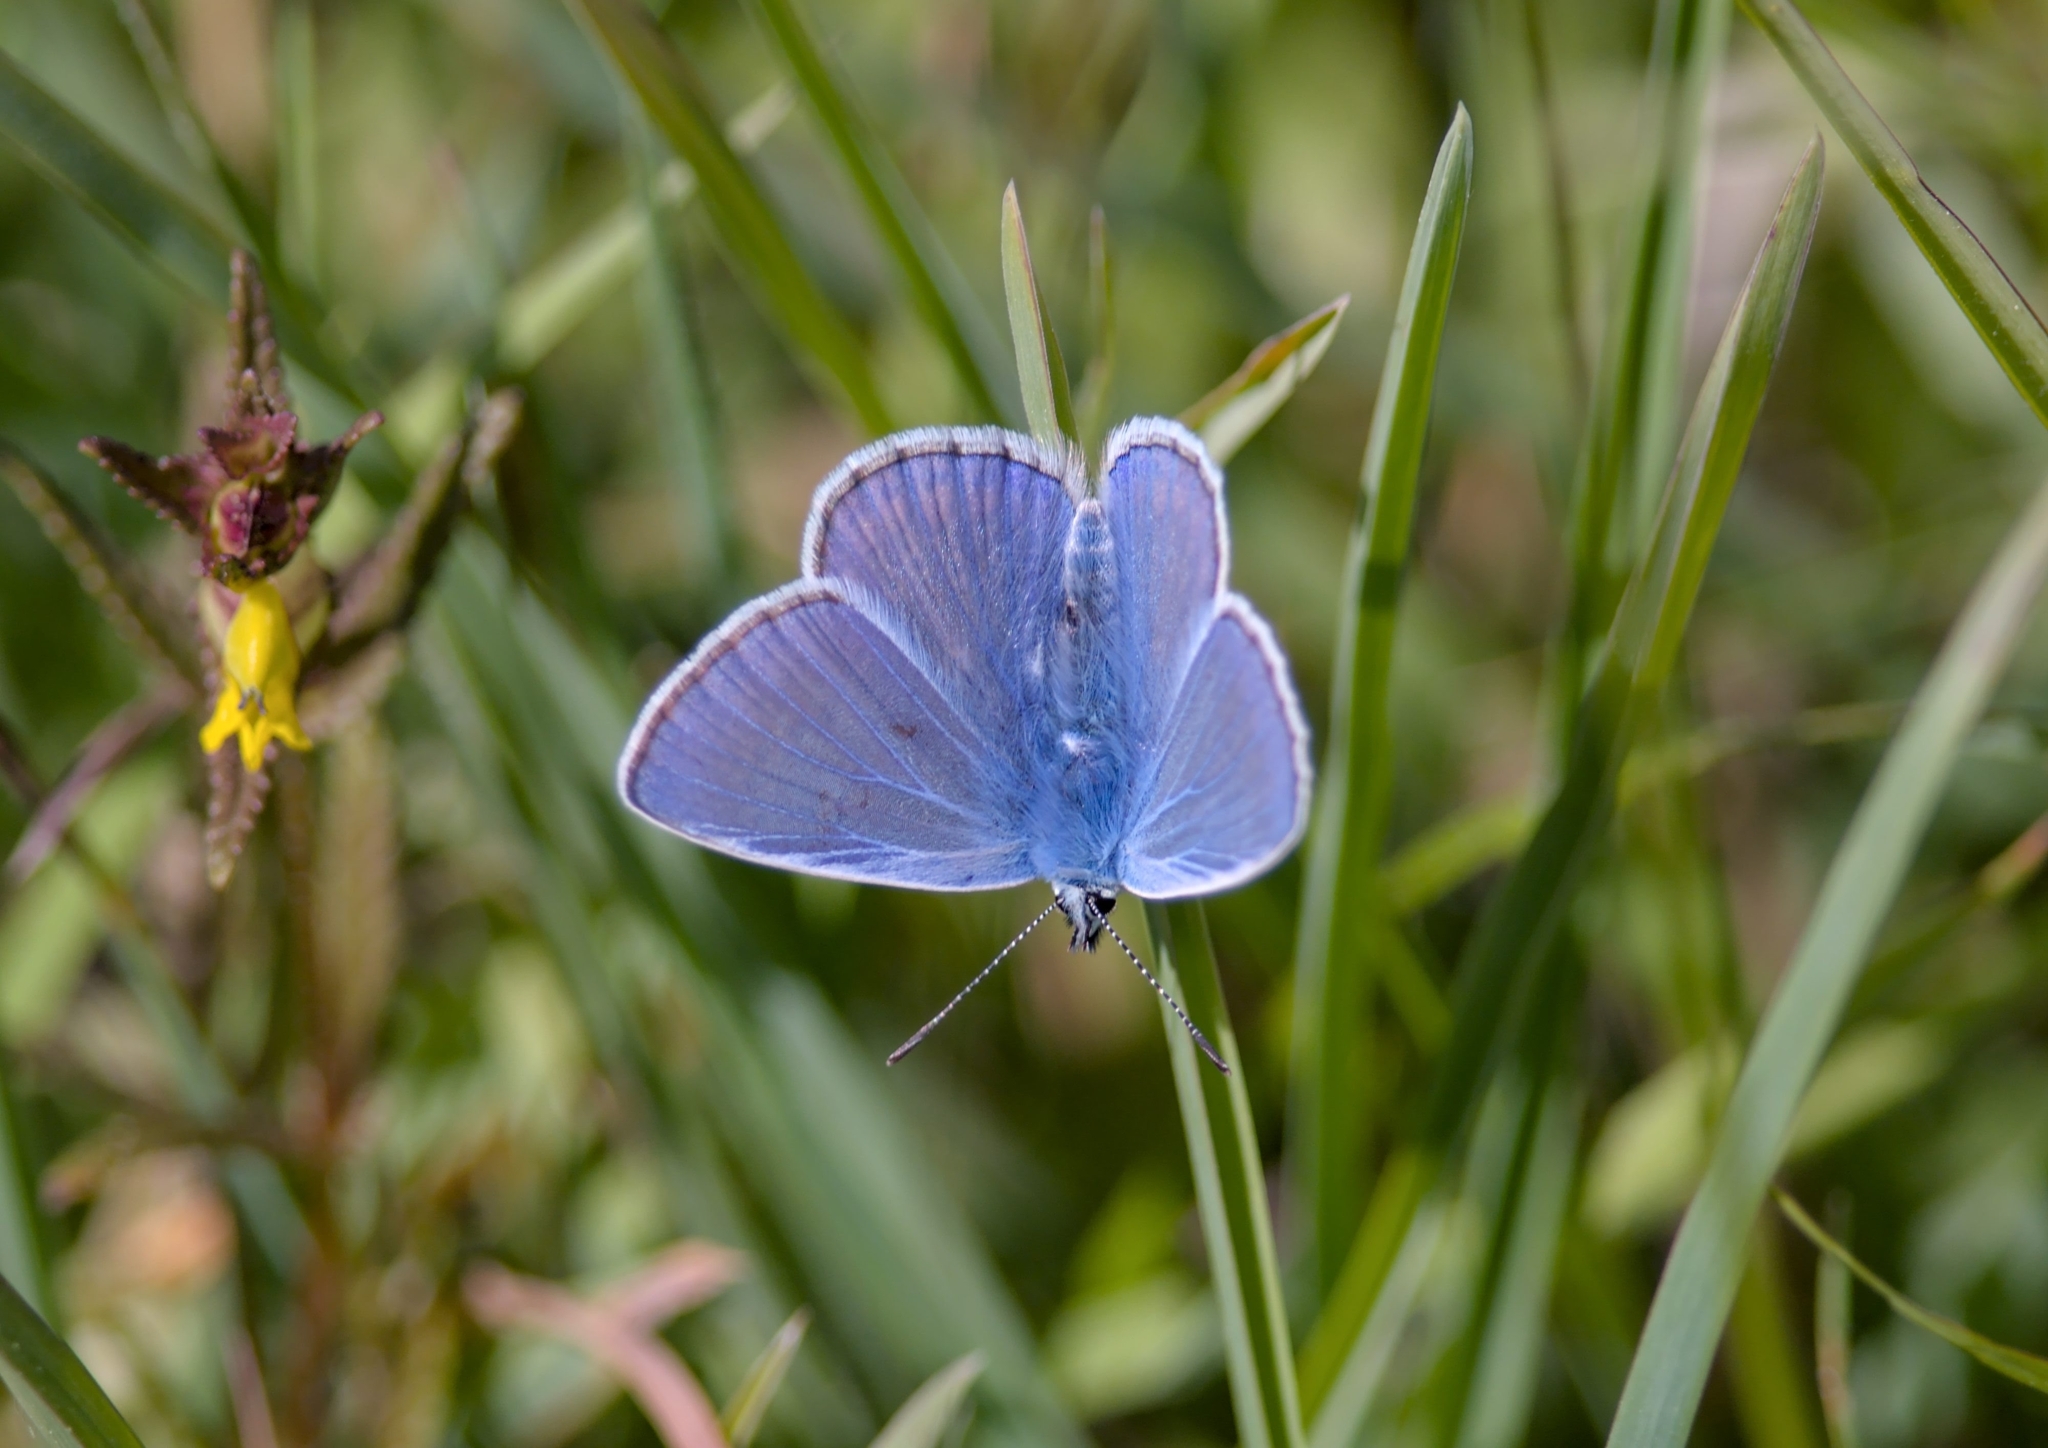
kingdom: Animalia
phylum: Arthropoda
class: Insecta
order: Lepidoptera
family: Lycaenidae
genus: Polyommatus
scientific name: Polyommatus icarus
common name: Common blue
